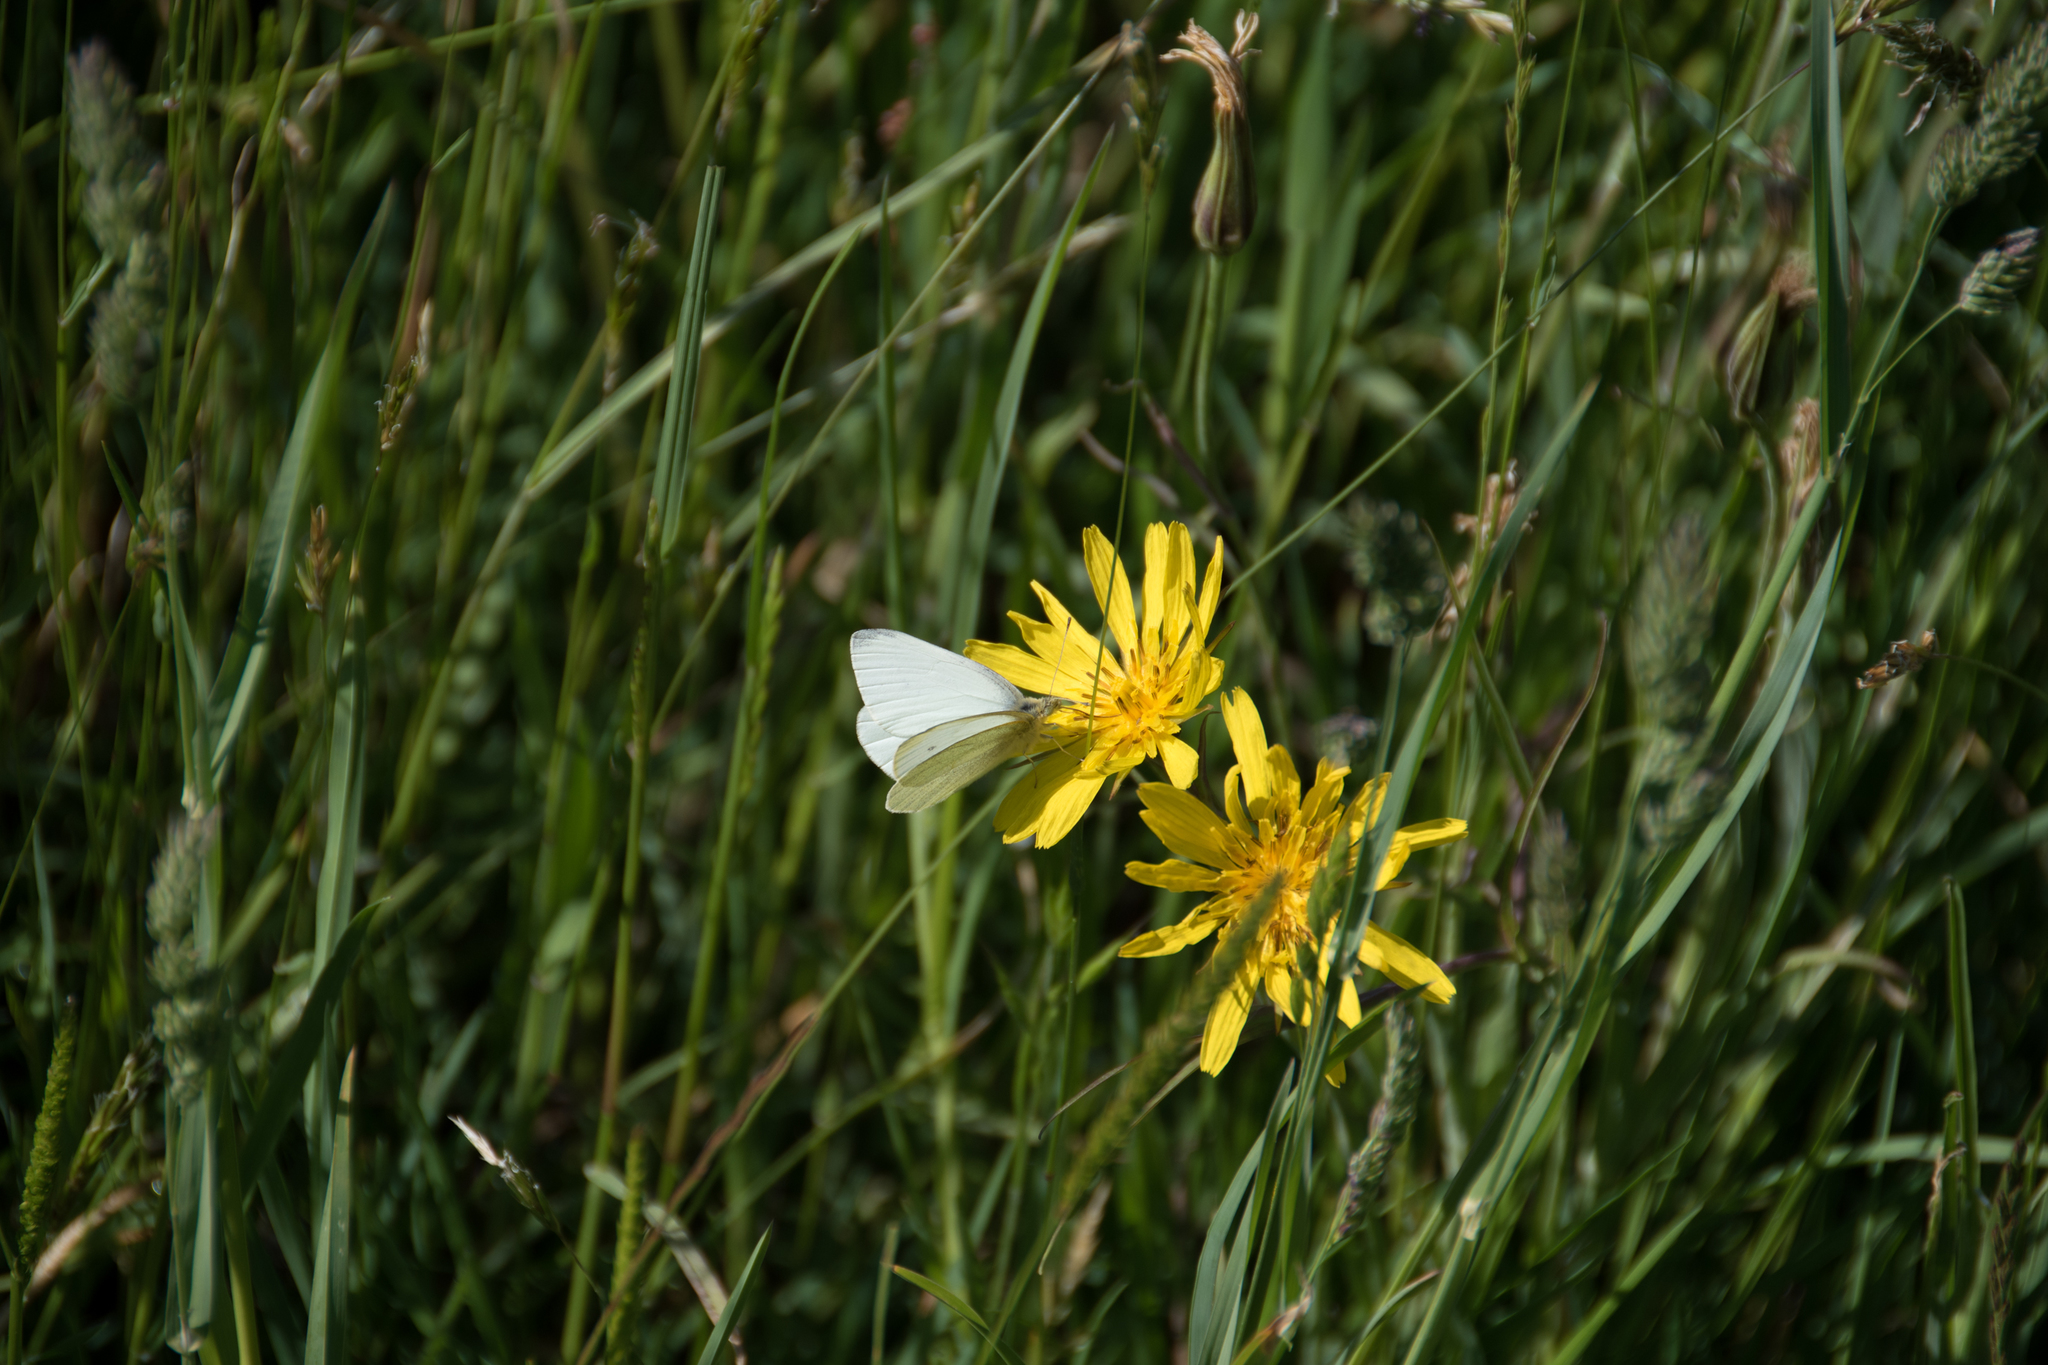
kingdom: Animalia
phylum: Arthropoda
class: Insecta
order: Lepidoptera
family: Pieridae
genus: Pieris
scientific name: Pieris rapae
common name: Small white
